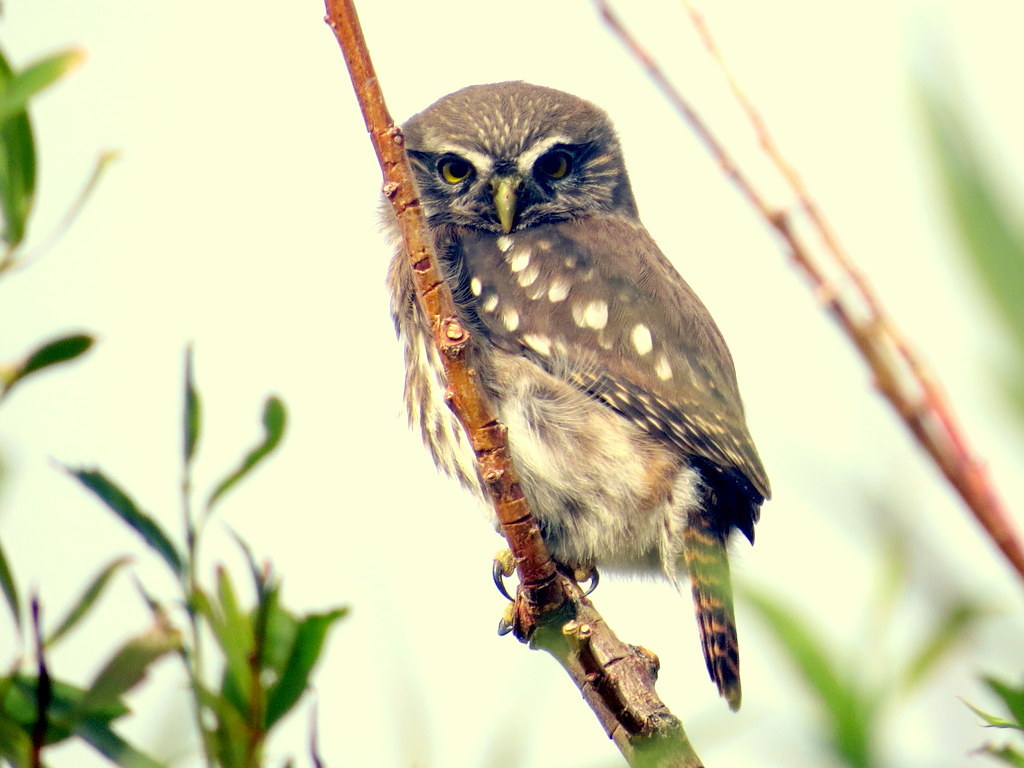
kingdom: Animalia
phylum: Chordata
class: Aves
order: Strigiformes
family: Strigidae
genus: Glaucidium
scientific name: Glaucidium nana
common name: Austral pygmy-owl
